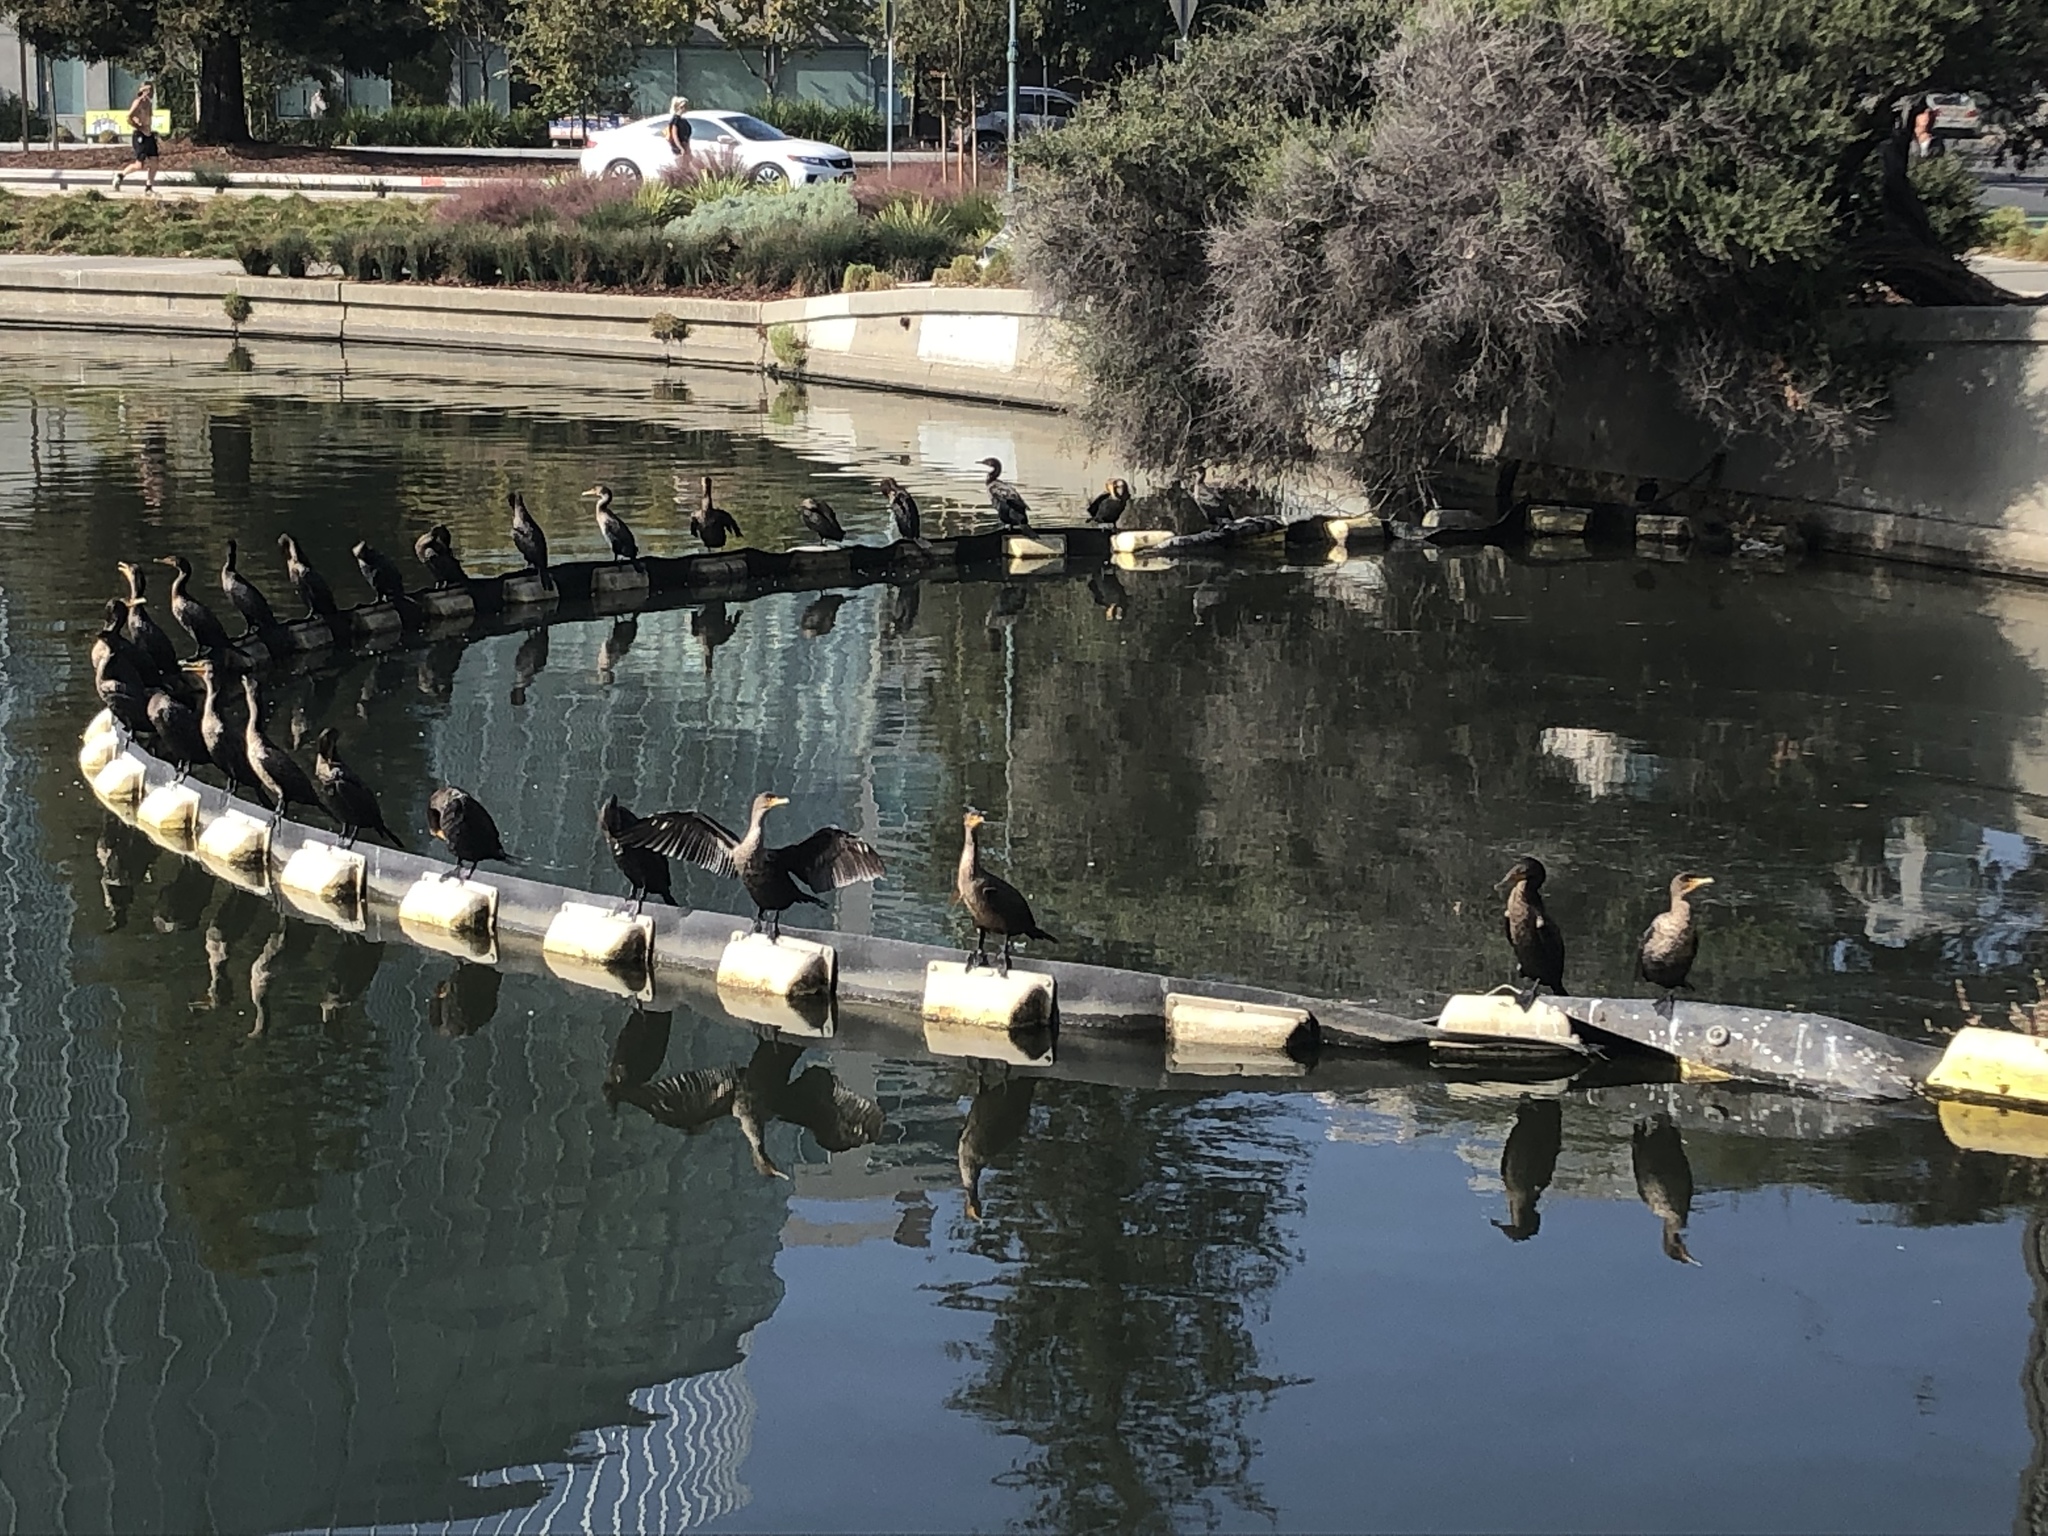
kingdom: Animalia
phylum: Chordata
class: Aves
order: Suliformes
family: Phalacrocoracidae
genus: Phalacrocorax
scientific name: Phalacrocorax auritus
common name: Double-crested cormorant
